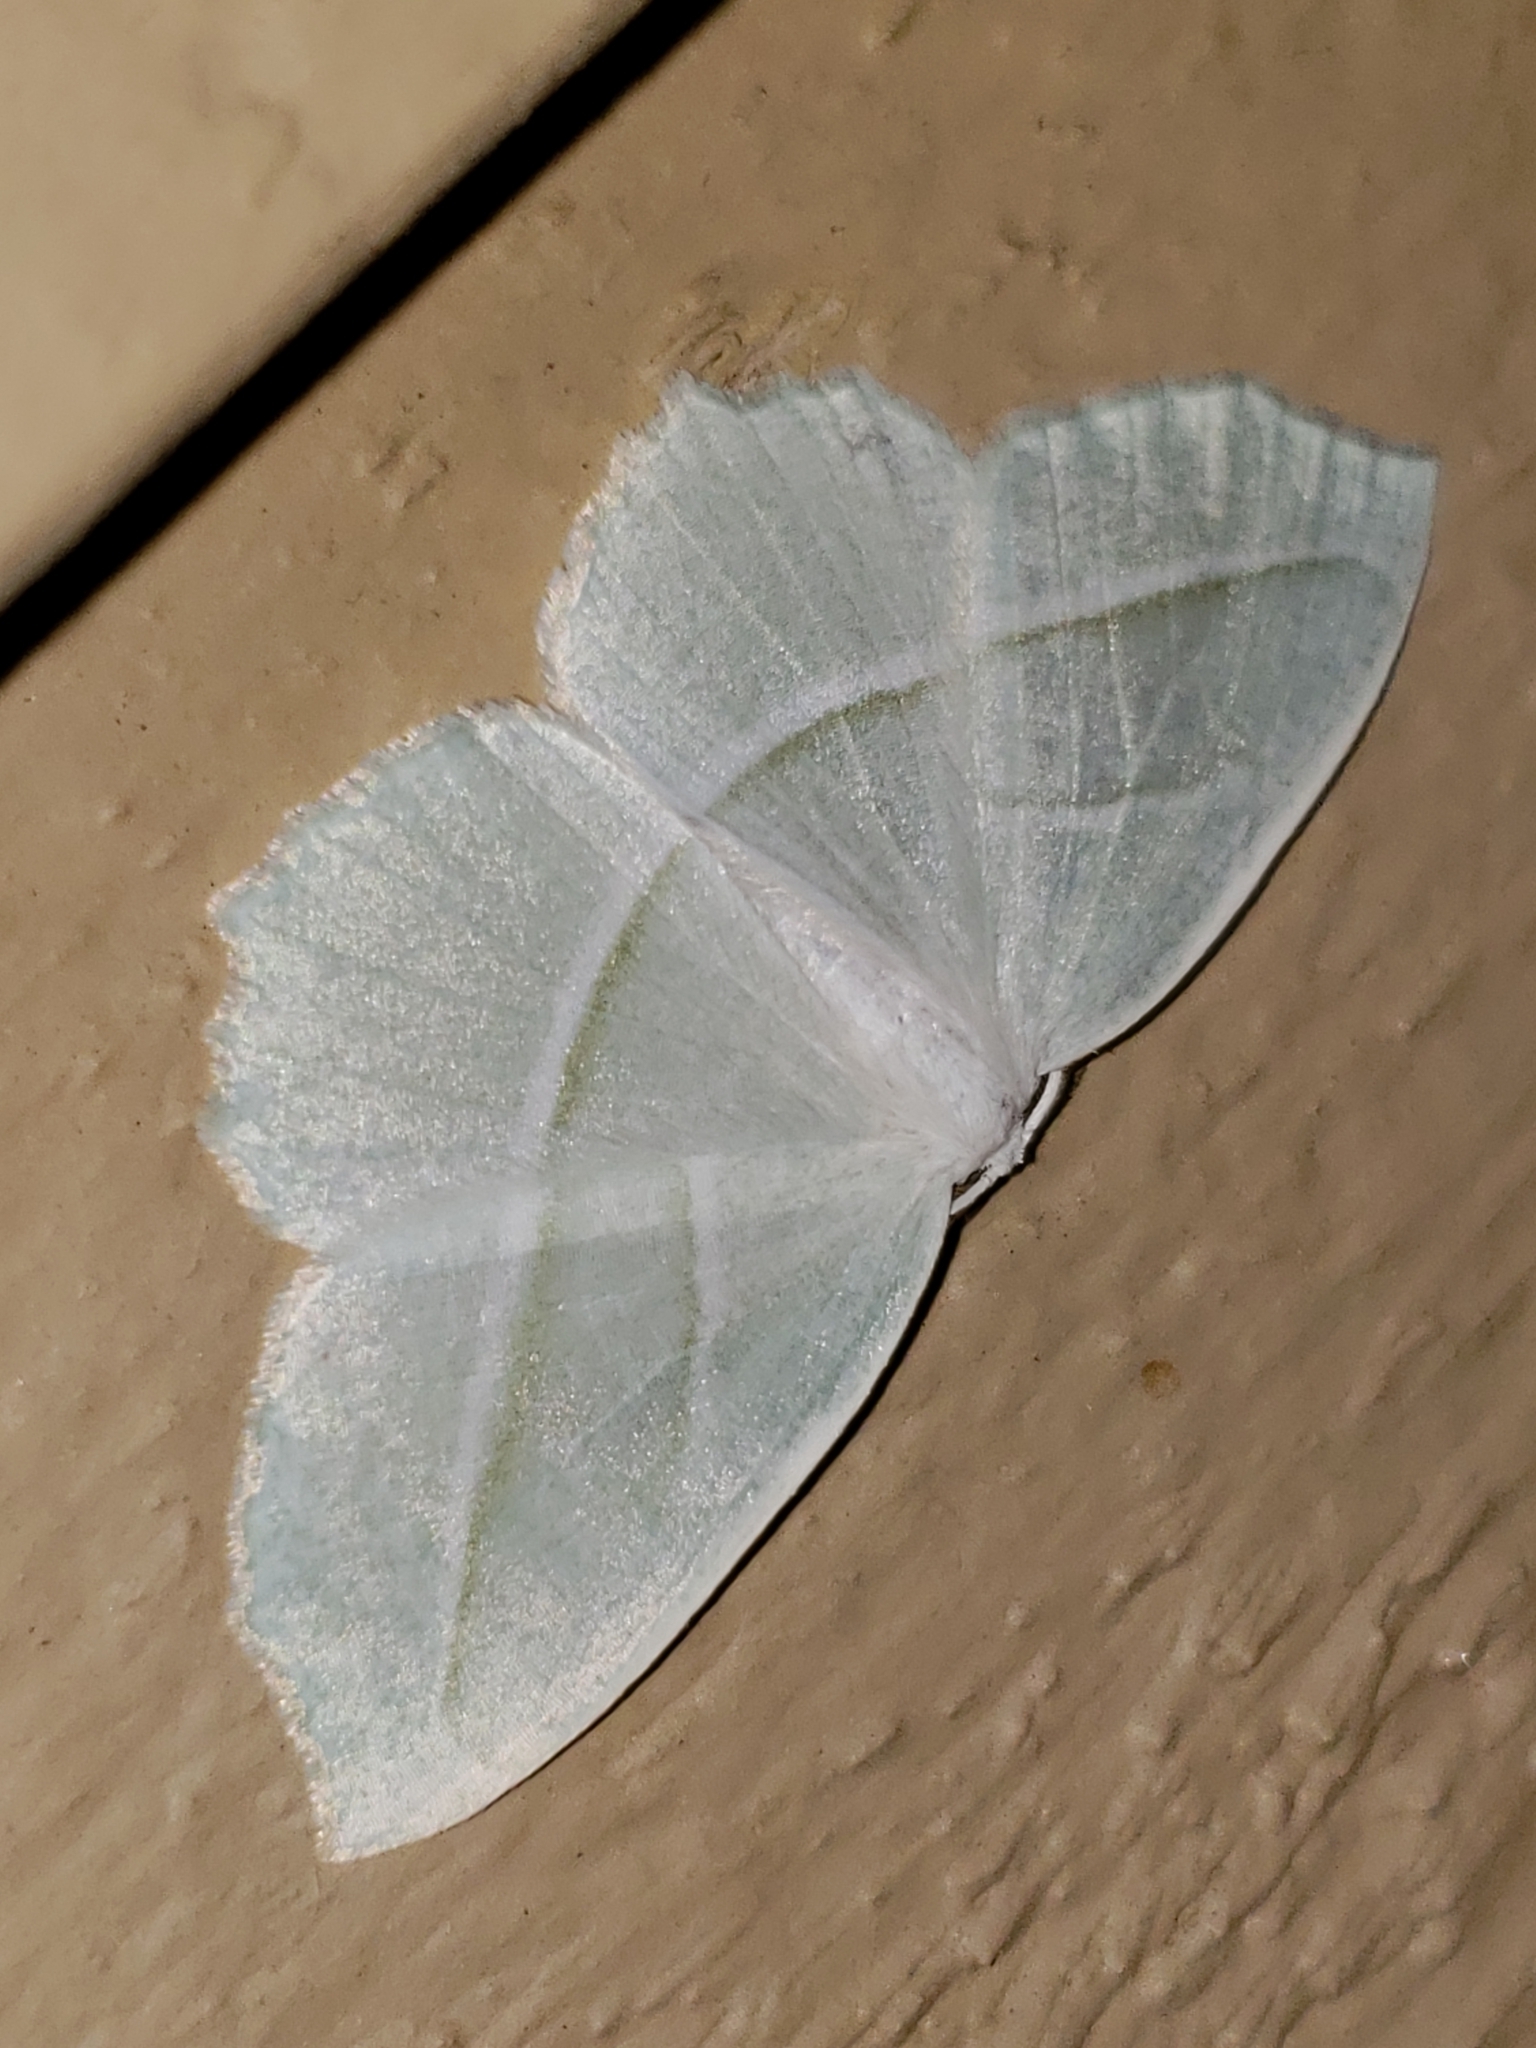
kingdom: Animalia
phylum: Arthropoda
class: Insecta
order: Lepidoptera
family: Geometridae
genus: Campaea
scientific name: Campaea perlata
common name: Fringed looper
